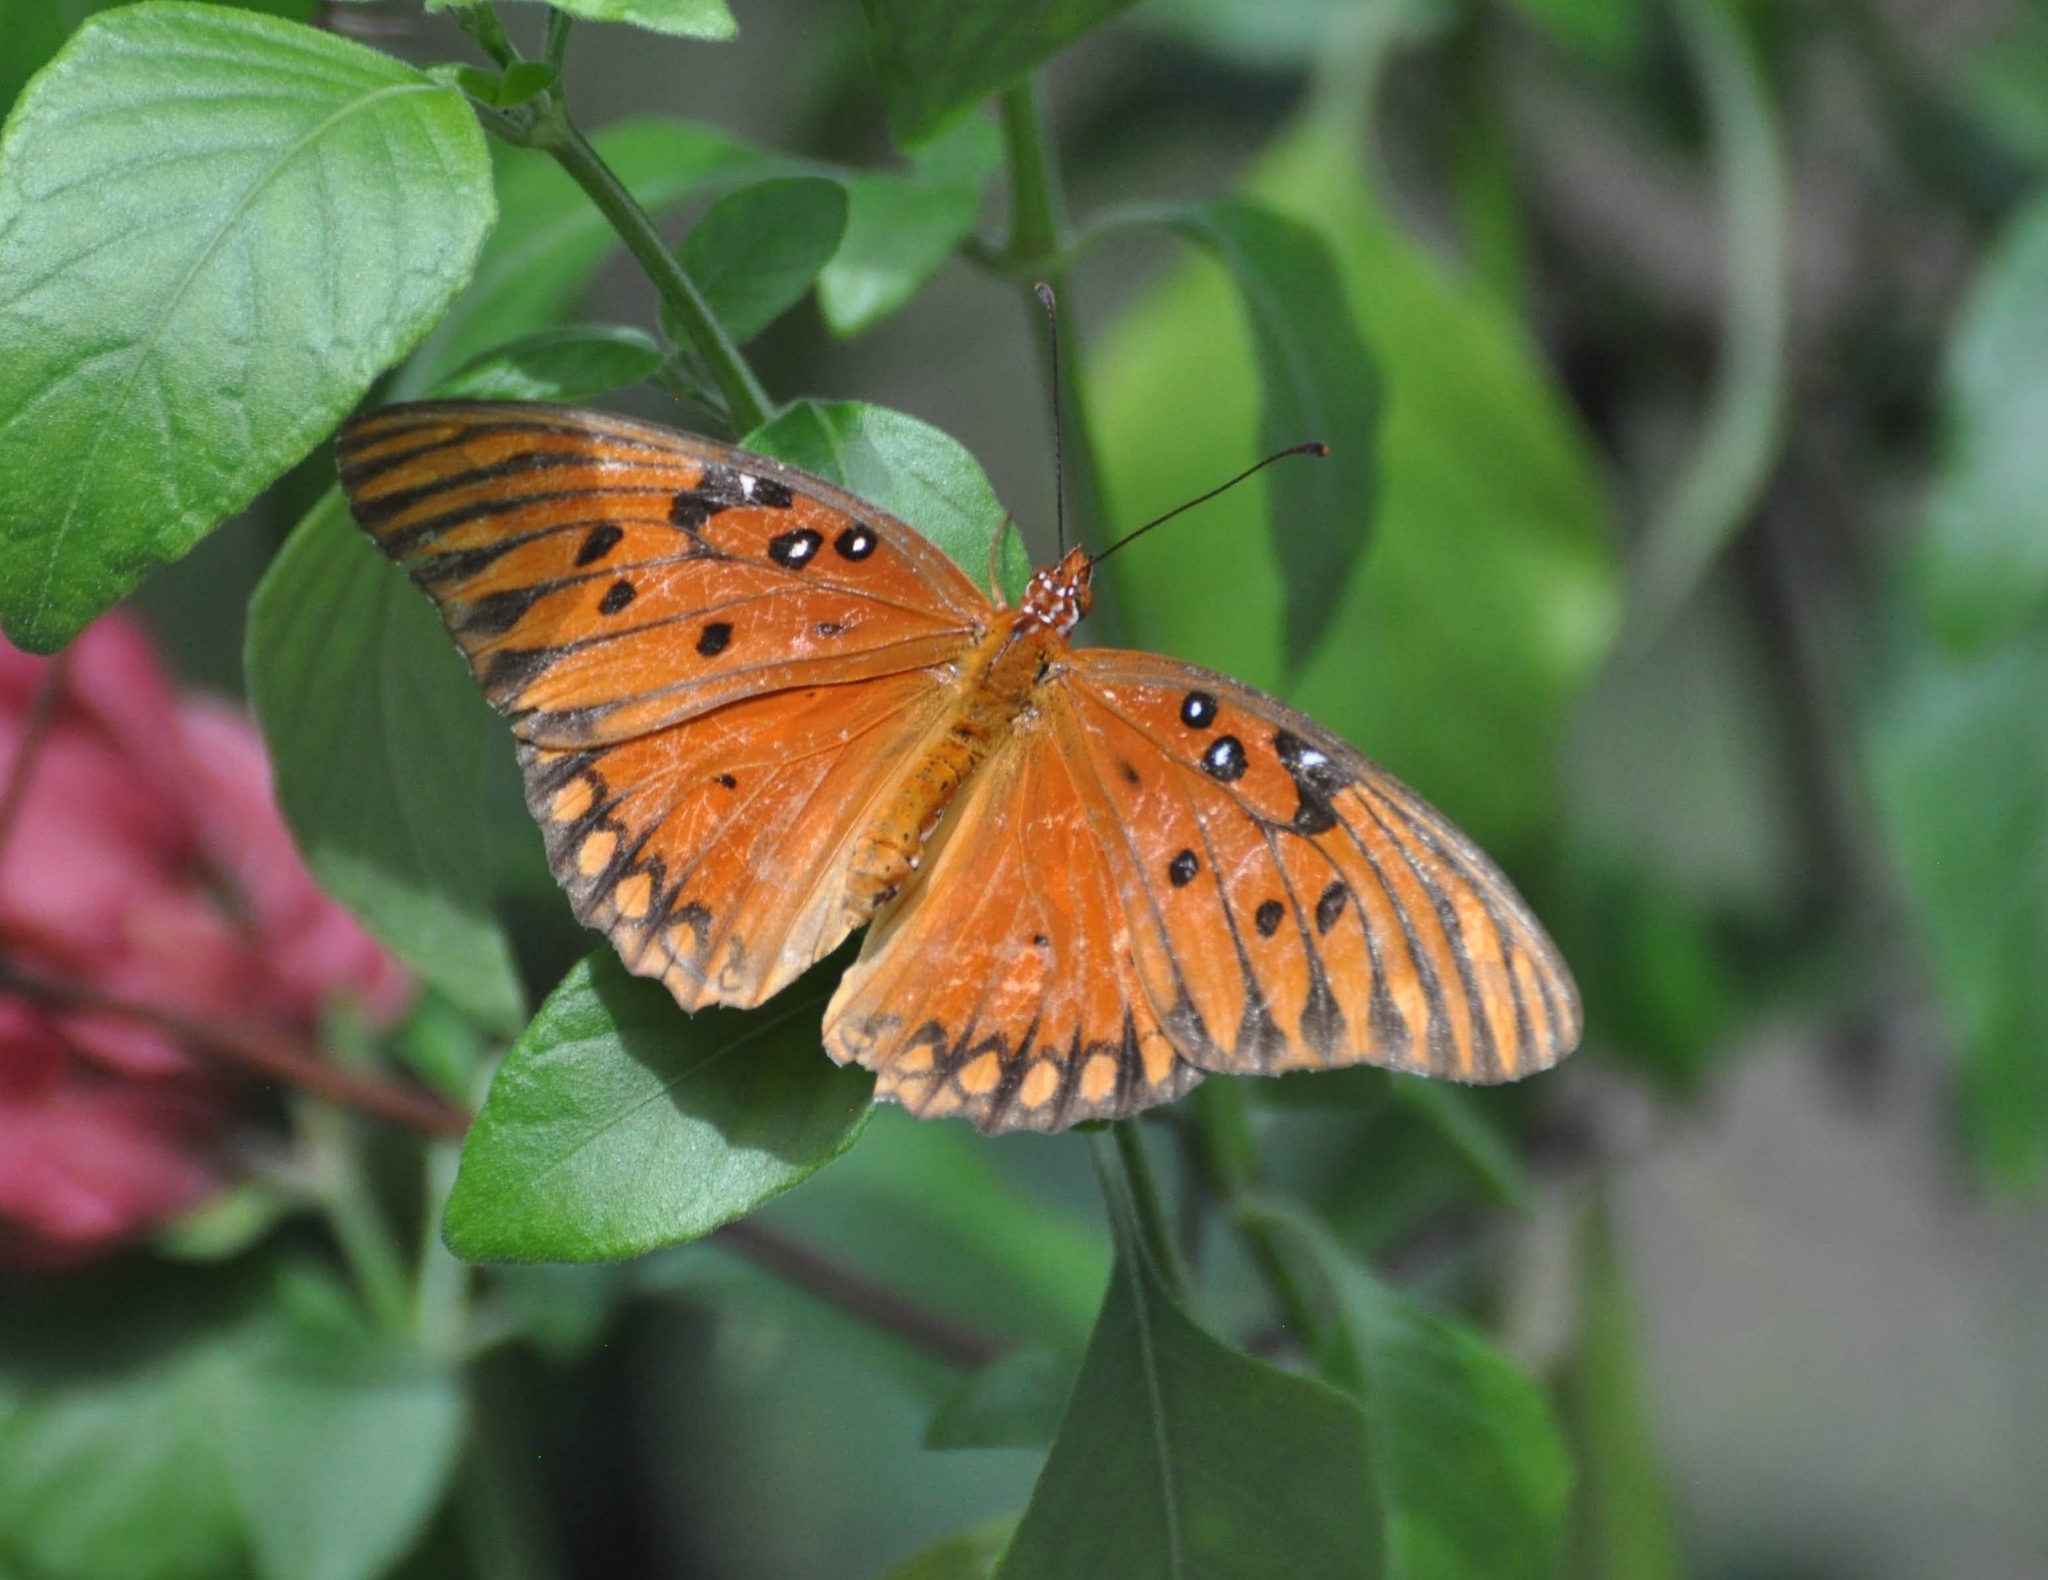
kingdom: Animalia
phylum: Arthropoda
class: Insecta
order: Lepidoptera
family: Nymphalidae
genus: Dione
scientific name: Dione vanillae
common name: Gulf fritillary
